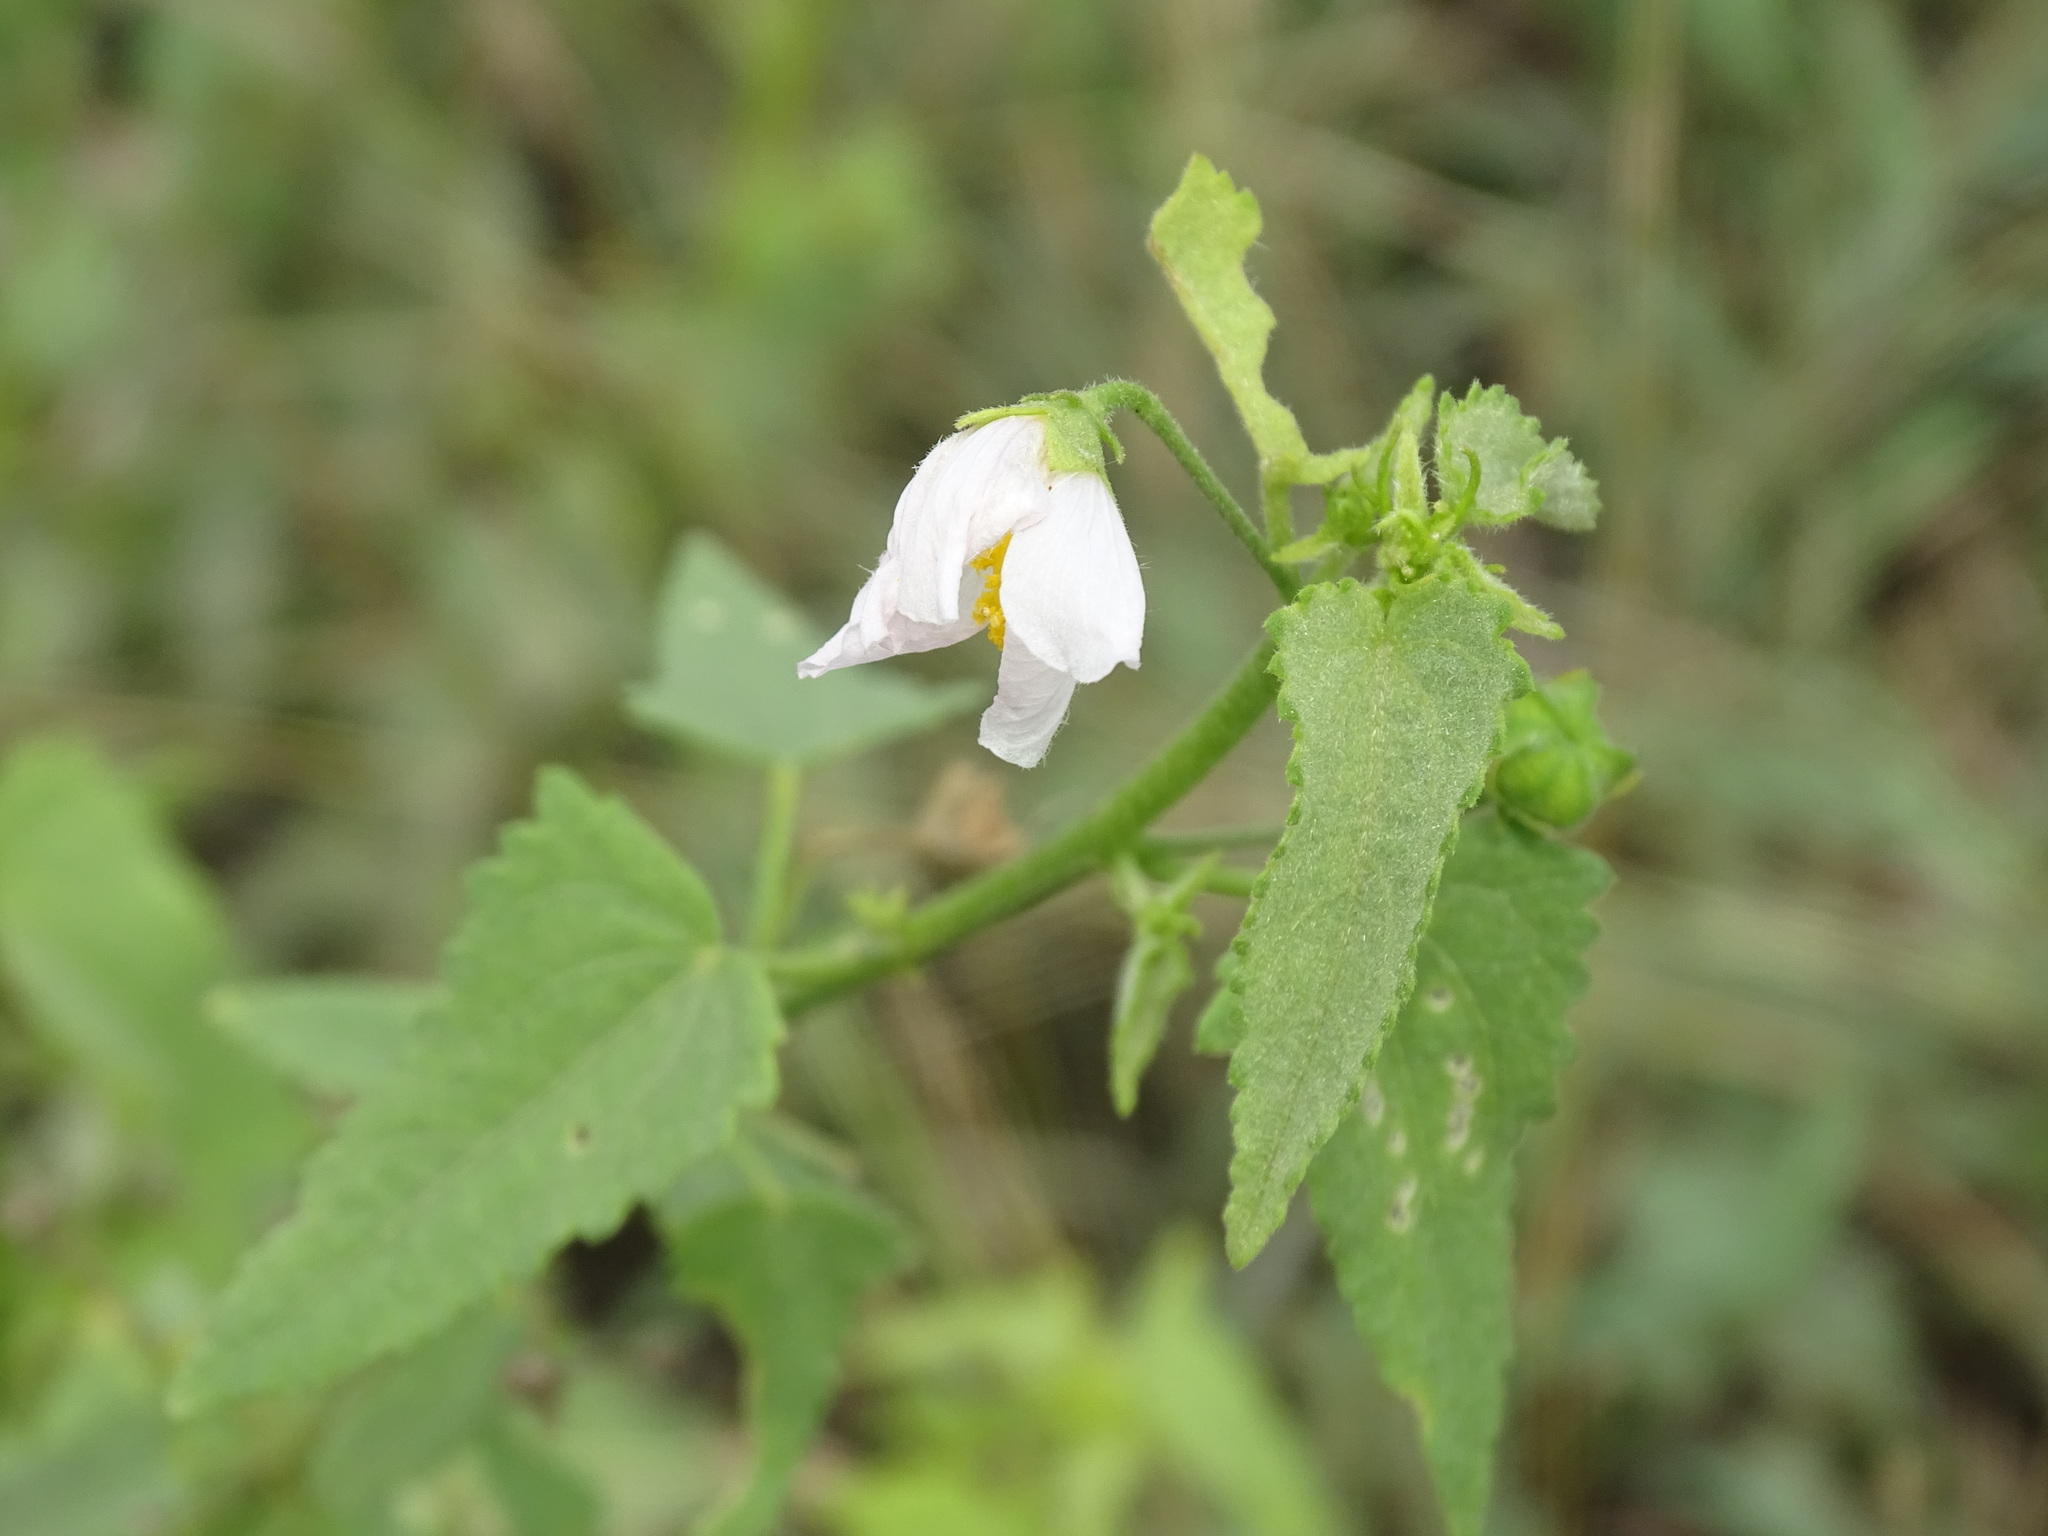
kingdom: Plantae
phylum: Tracheophyta
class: Magnoliopsida
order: Malvales
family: Malvaceae
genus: Kosteletzkya
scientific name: Kosteletzkya depressa
